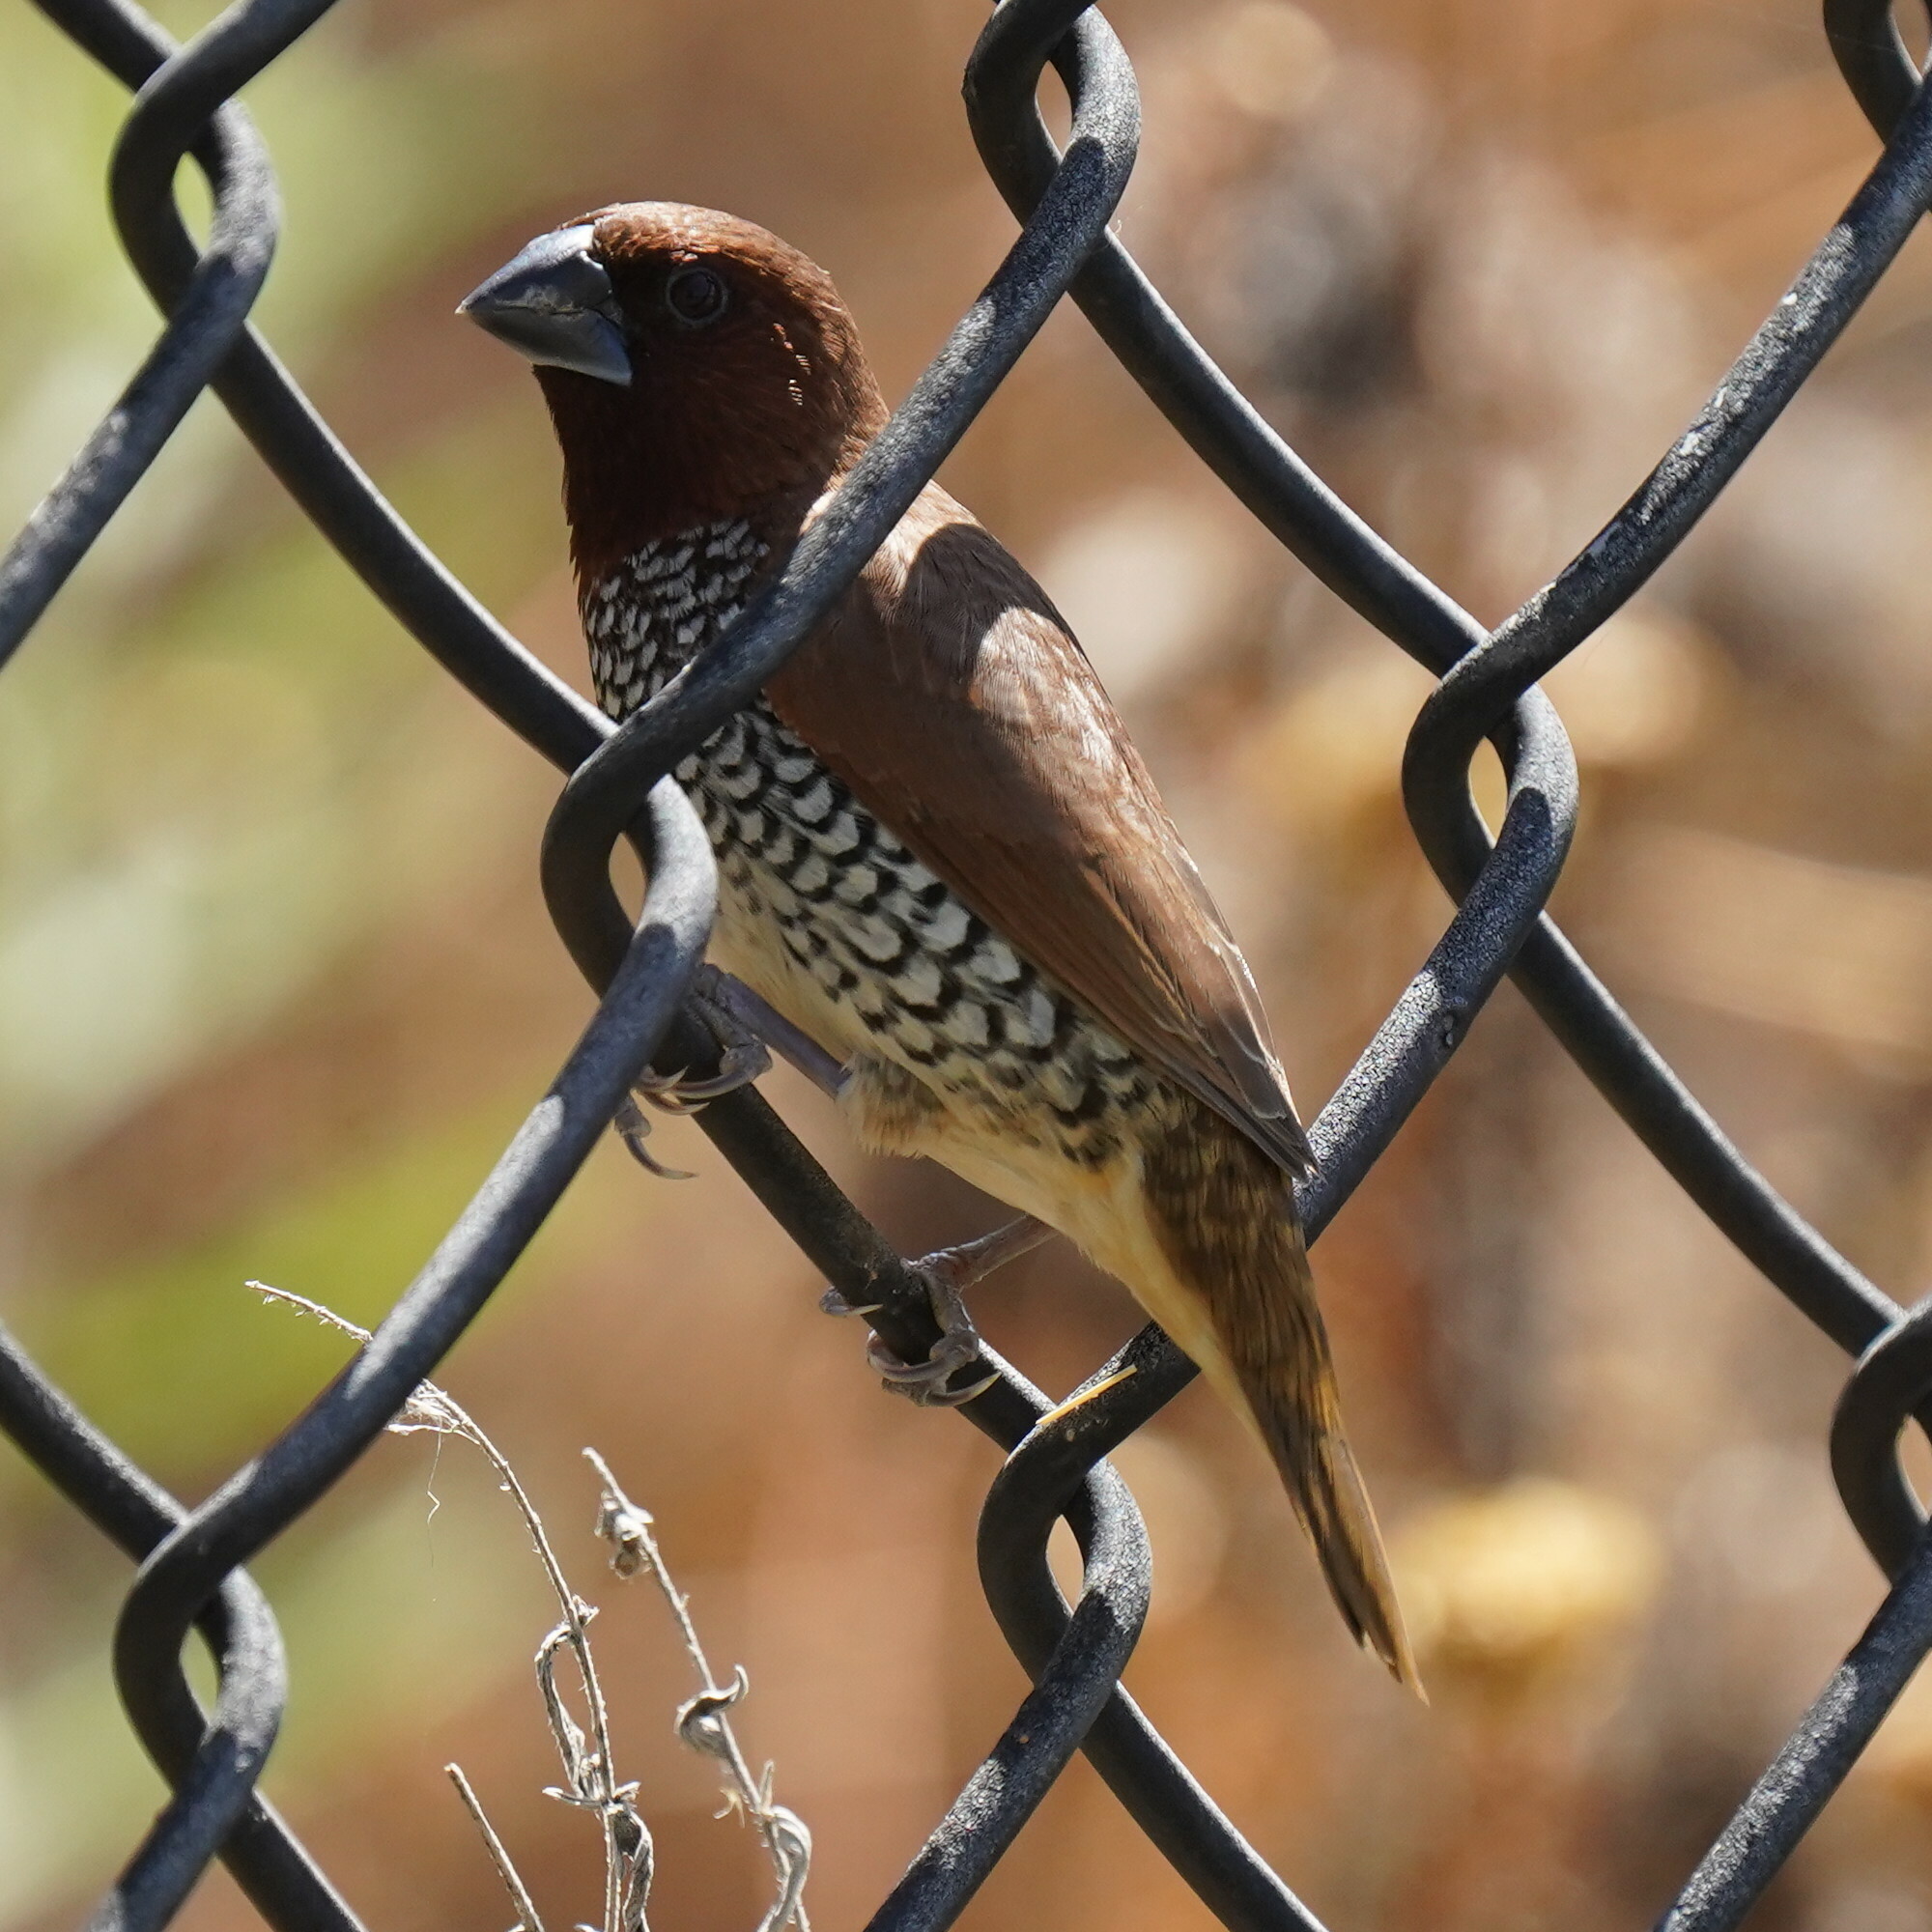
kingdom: Animalia
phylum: Chordata
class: Aves
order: Passeriformes
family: Estrildidae
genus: Lonchura
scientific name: Lonchura punctulata
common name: Scaly-breasted munia
